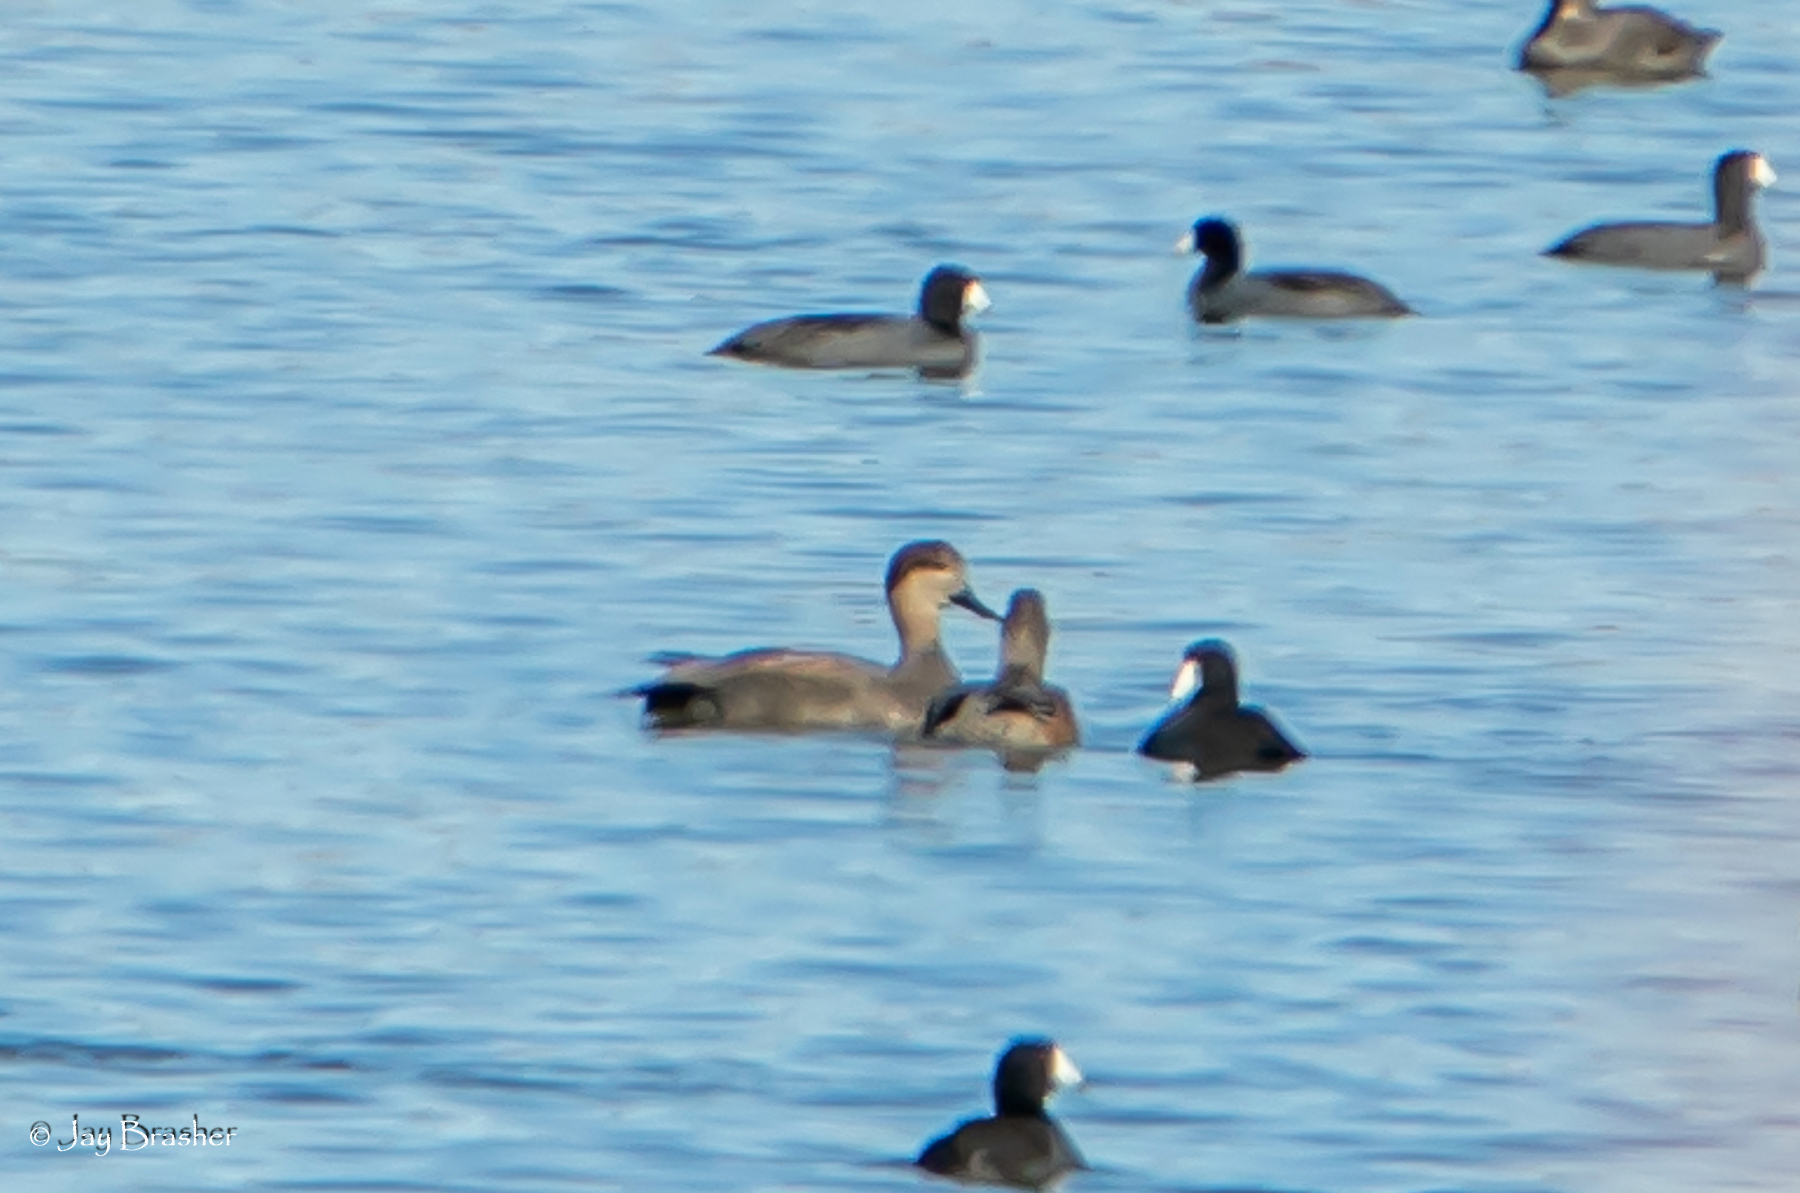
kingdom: Animalia
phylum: Chordata
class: Aves
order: Anseriformes
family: Anatidae
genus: Mareca
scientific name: Mareca strepera
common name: Gadwall
